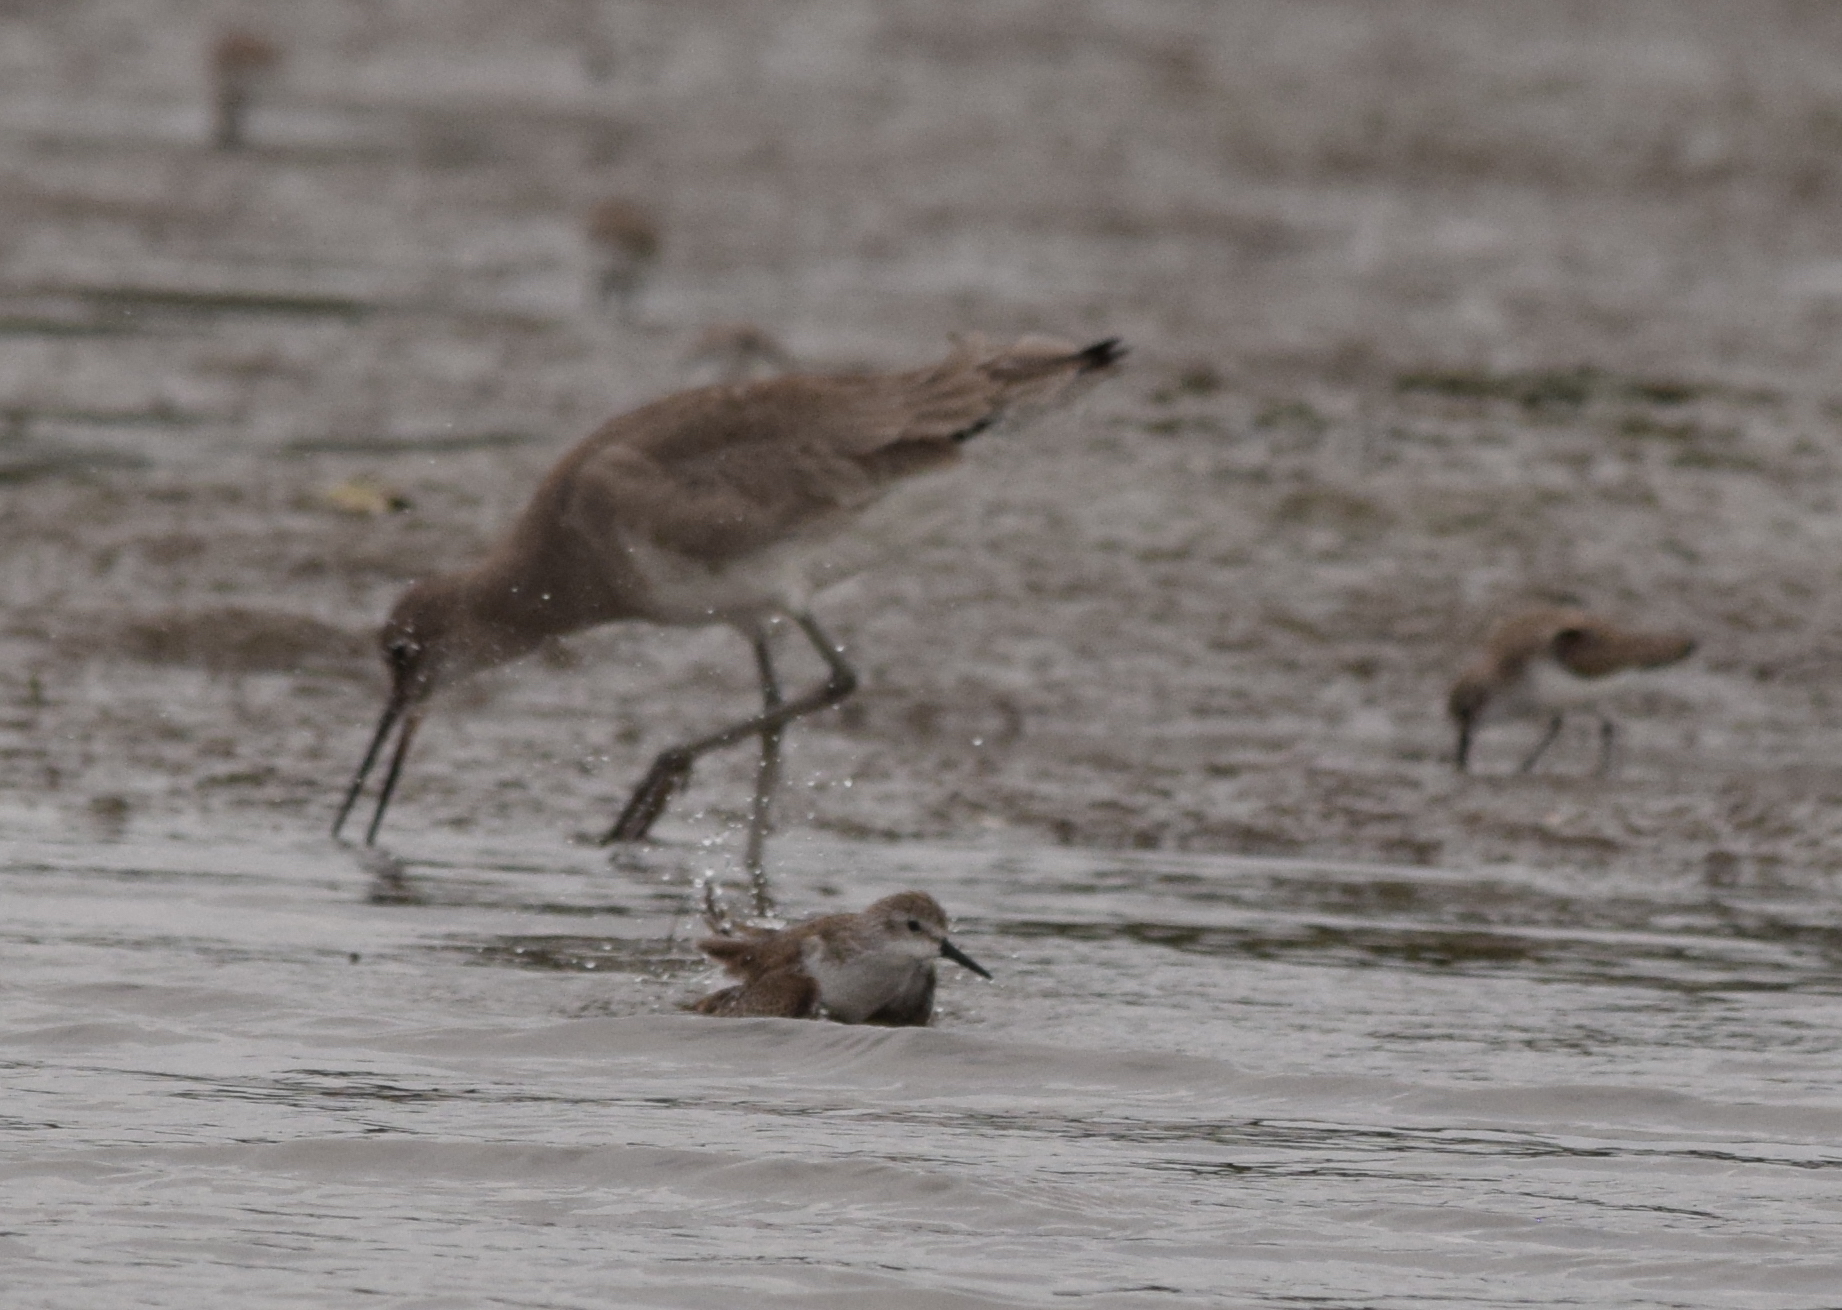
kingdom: Animalia
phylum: Chordata
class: Aves
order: Charadriiformes
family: Scolopacidae
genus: Tringa
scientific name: Tringa semipalmata
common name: Willet
